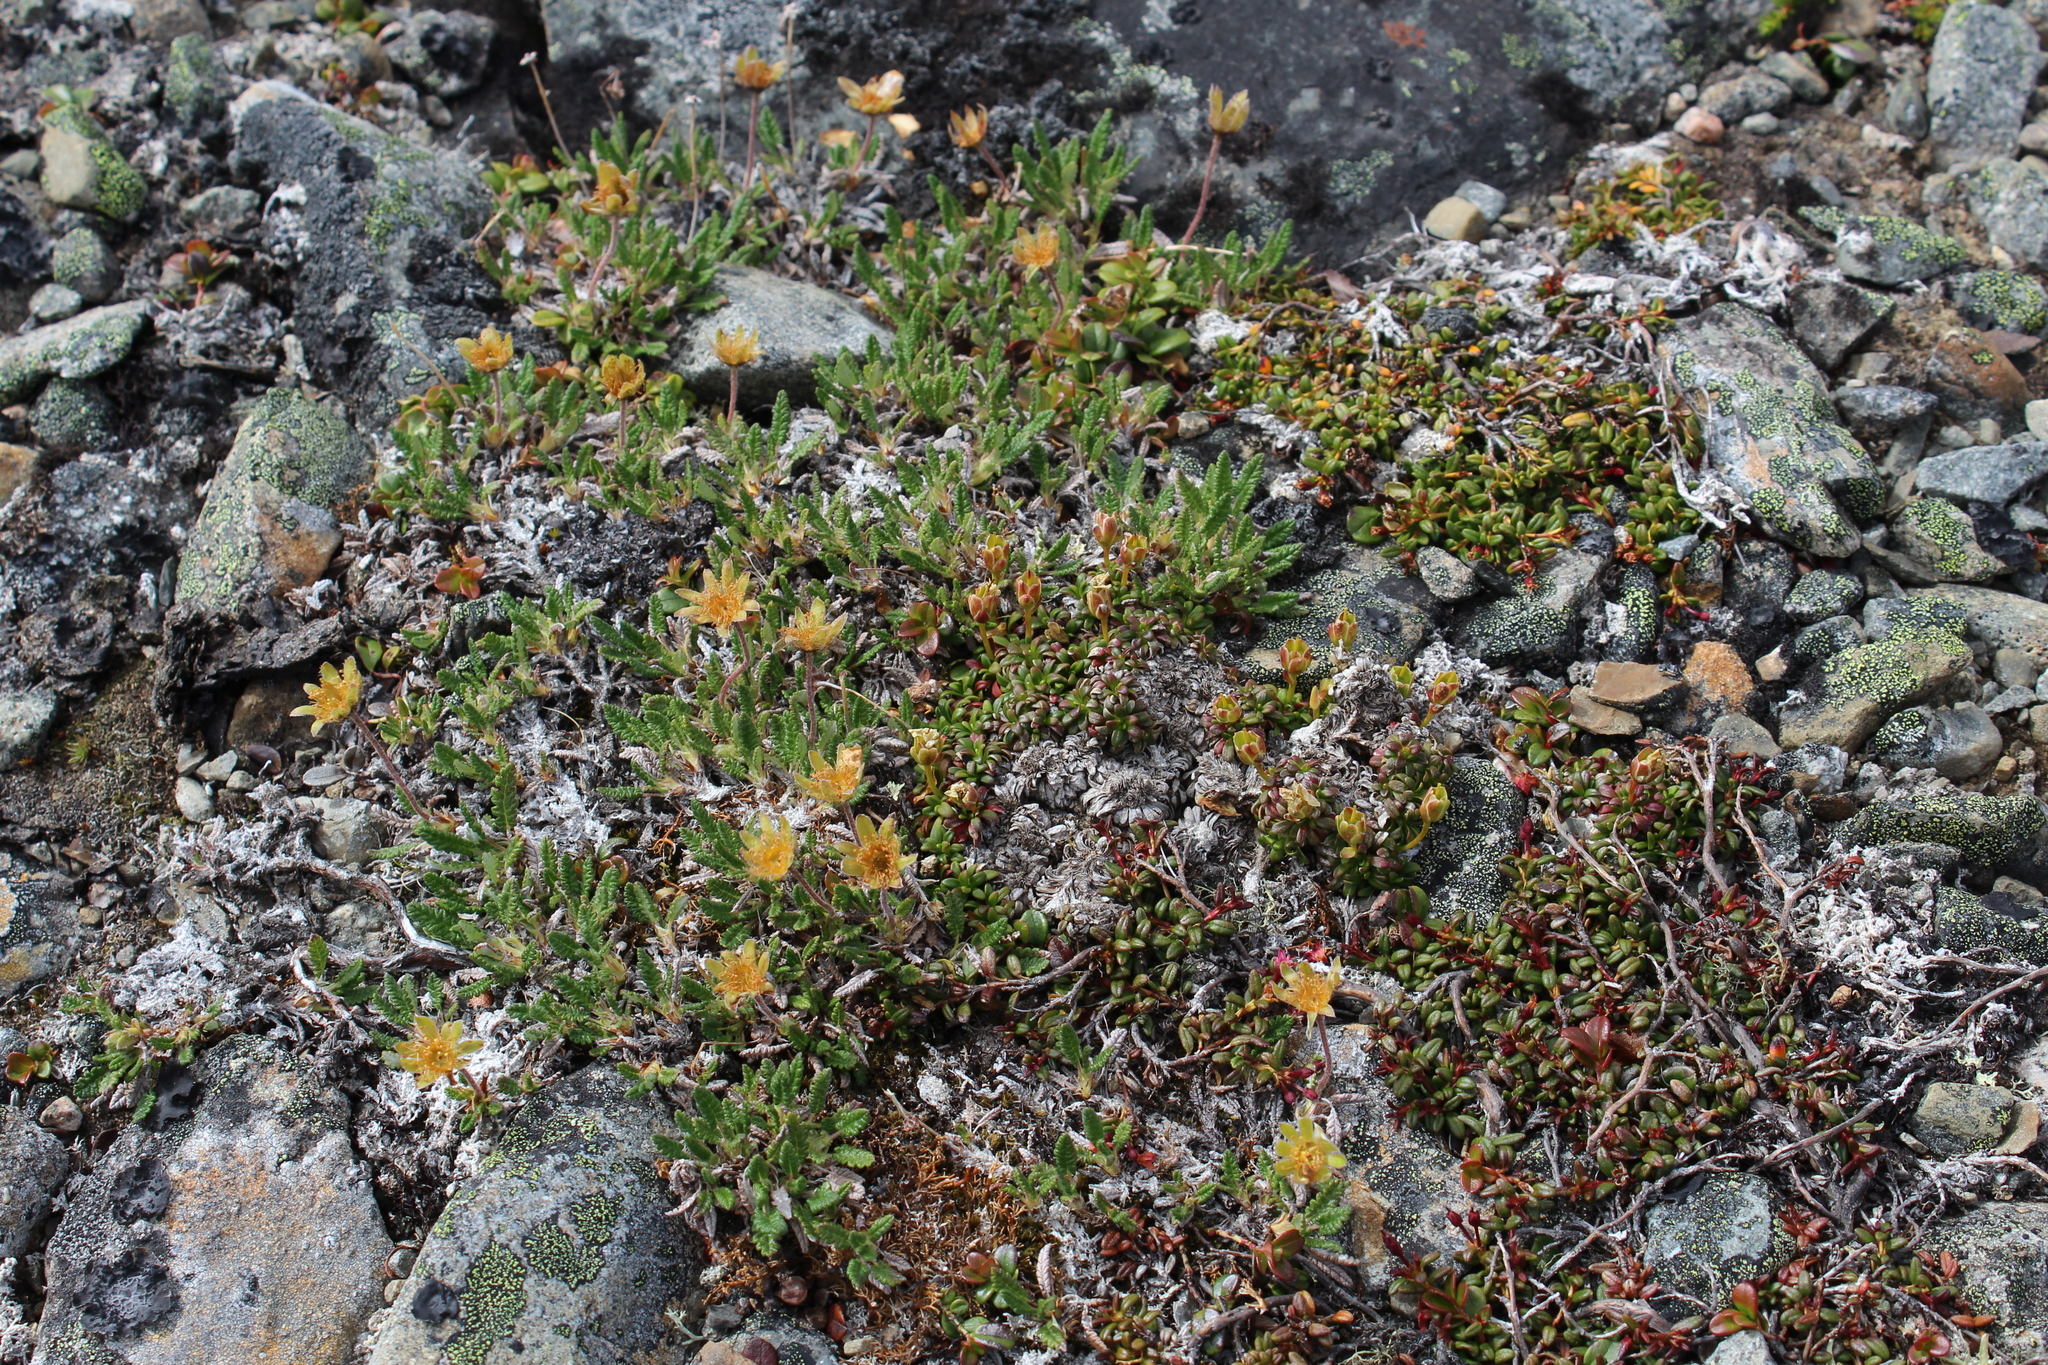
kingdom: Plantae
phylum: Tracheophyta
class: Magnoliopsida
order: Rosales
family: Rosaceae
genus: Dryas
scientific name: Dryas octopetala
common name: Eight-petal mountain-avens
